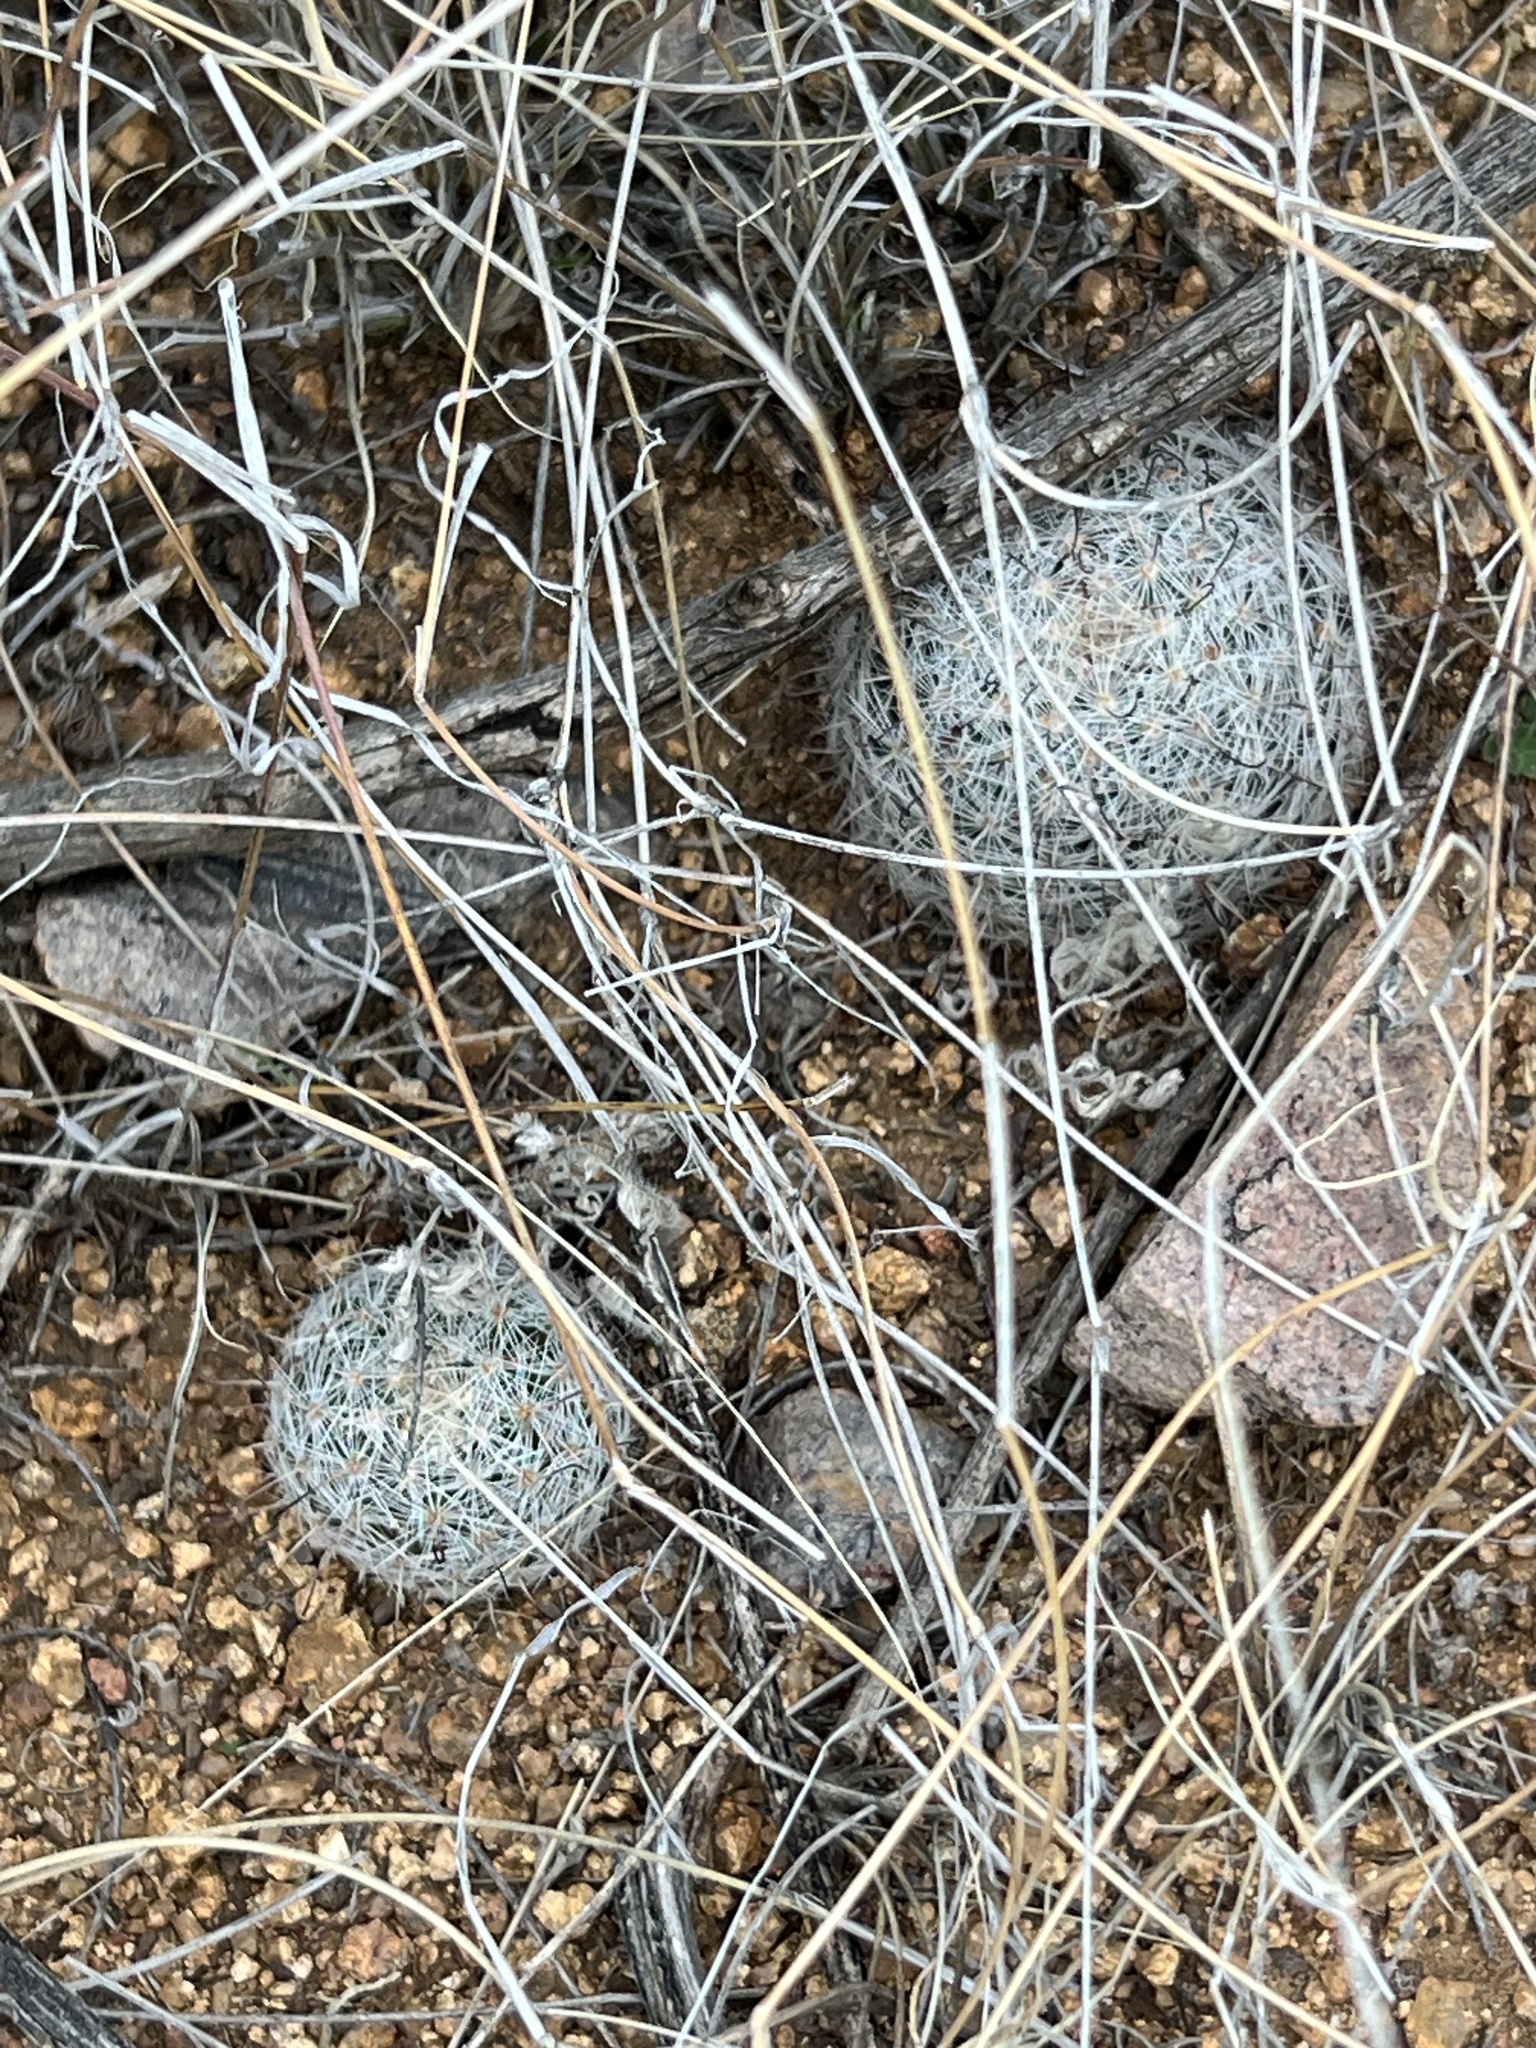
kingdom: Plantae
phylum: Tracheophyta
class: Magnoliopsida
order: Caryophyllales
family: Cactaceae
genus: Cochemiea
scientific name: Cochemiea grahamii
